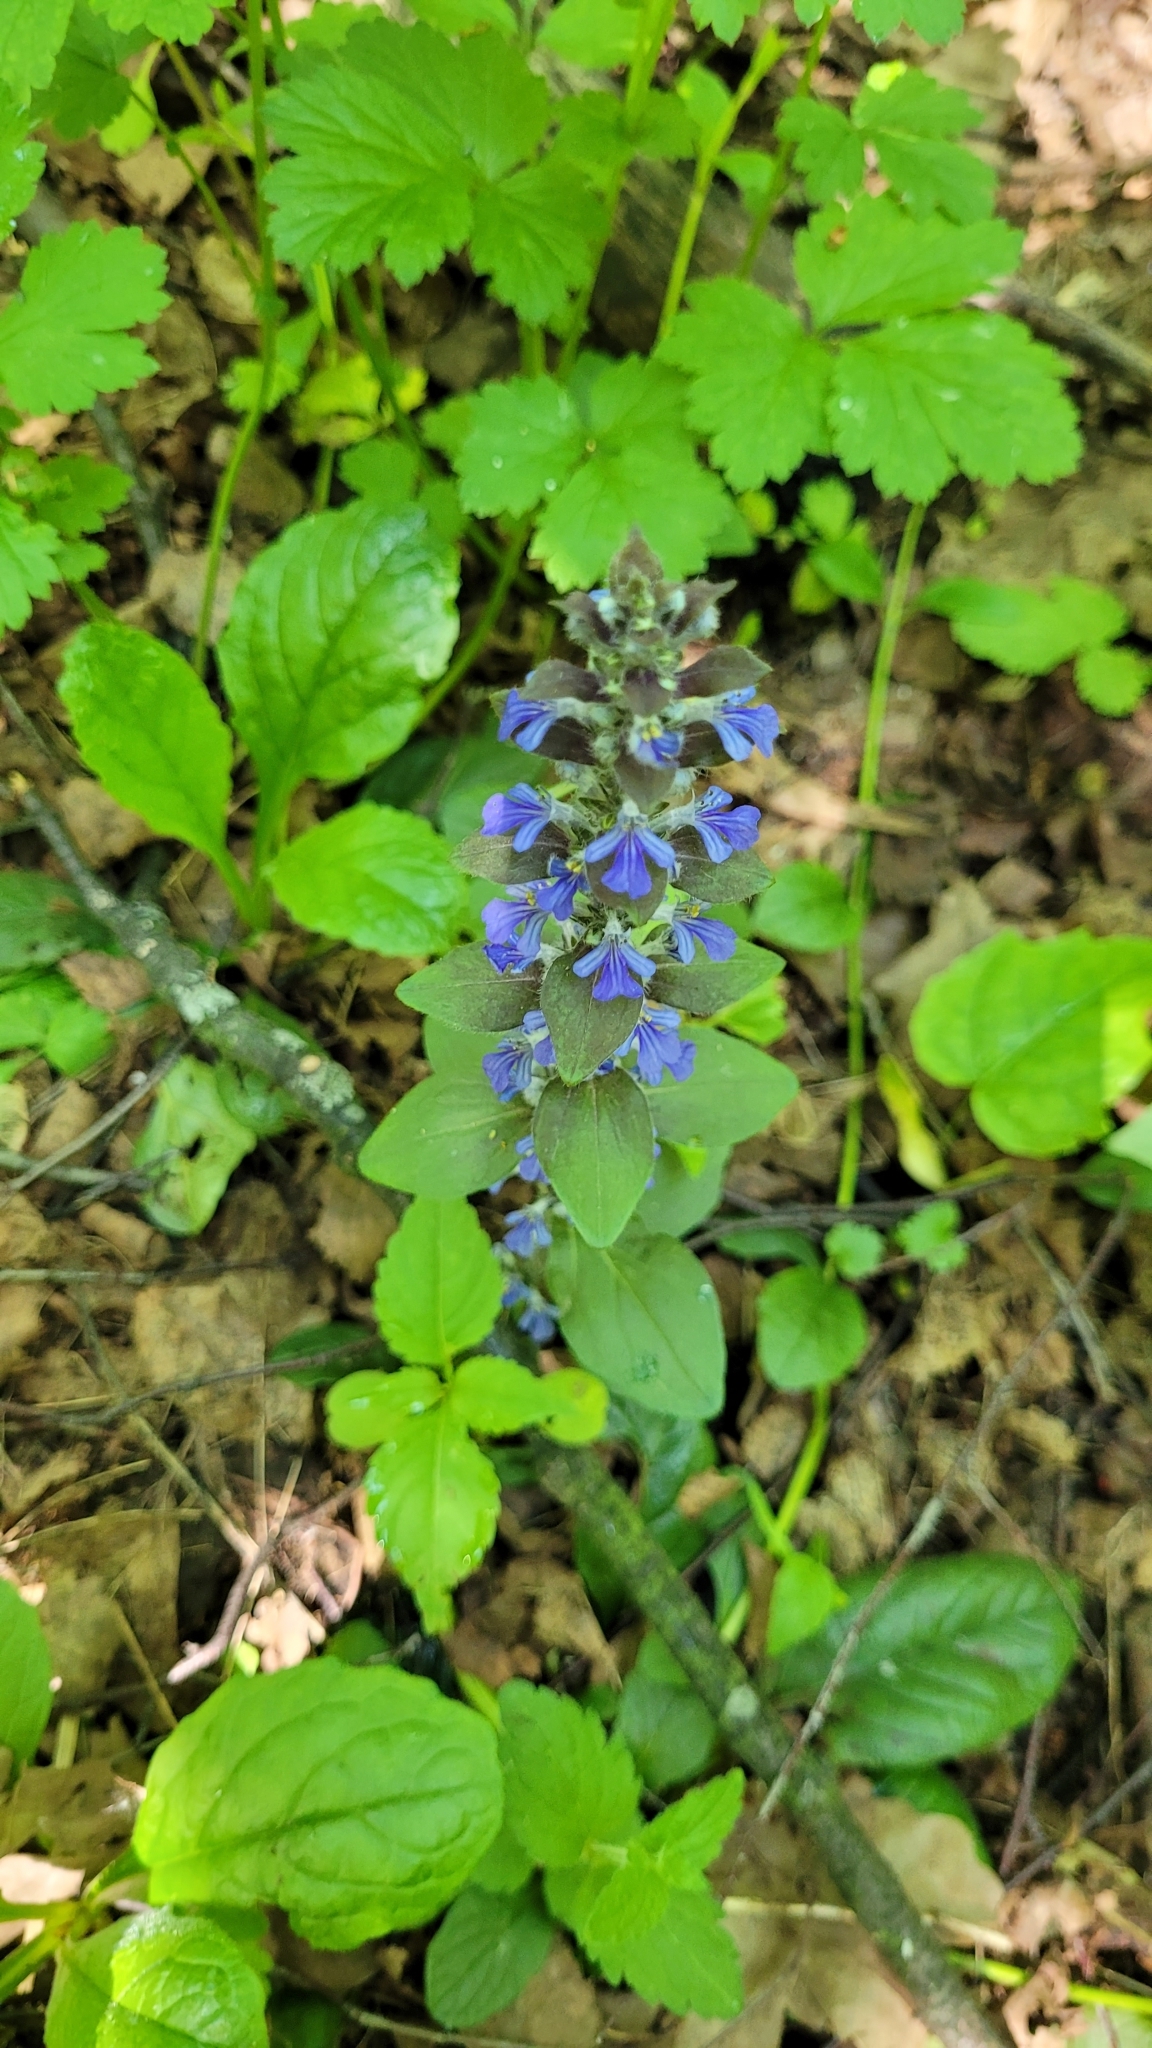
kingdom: Plantae
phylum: Tracheophyta
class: Magnoliopsida
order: Lamiales
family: Lamiaceae
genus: Ajuga
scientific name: Ajuga reptans
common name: Bugle
